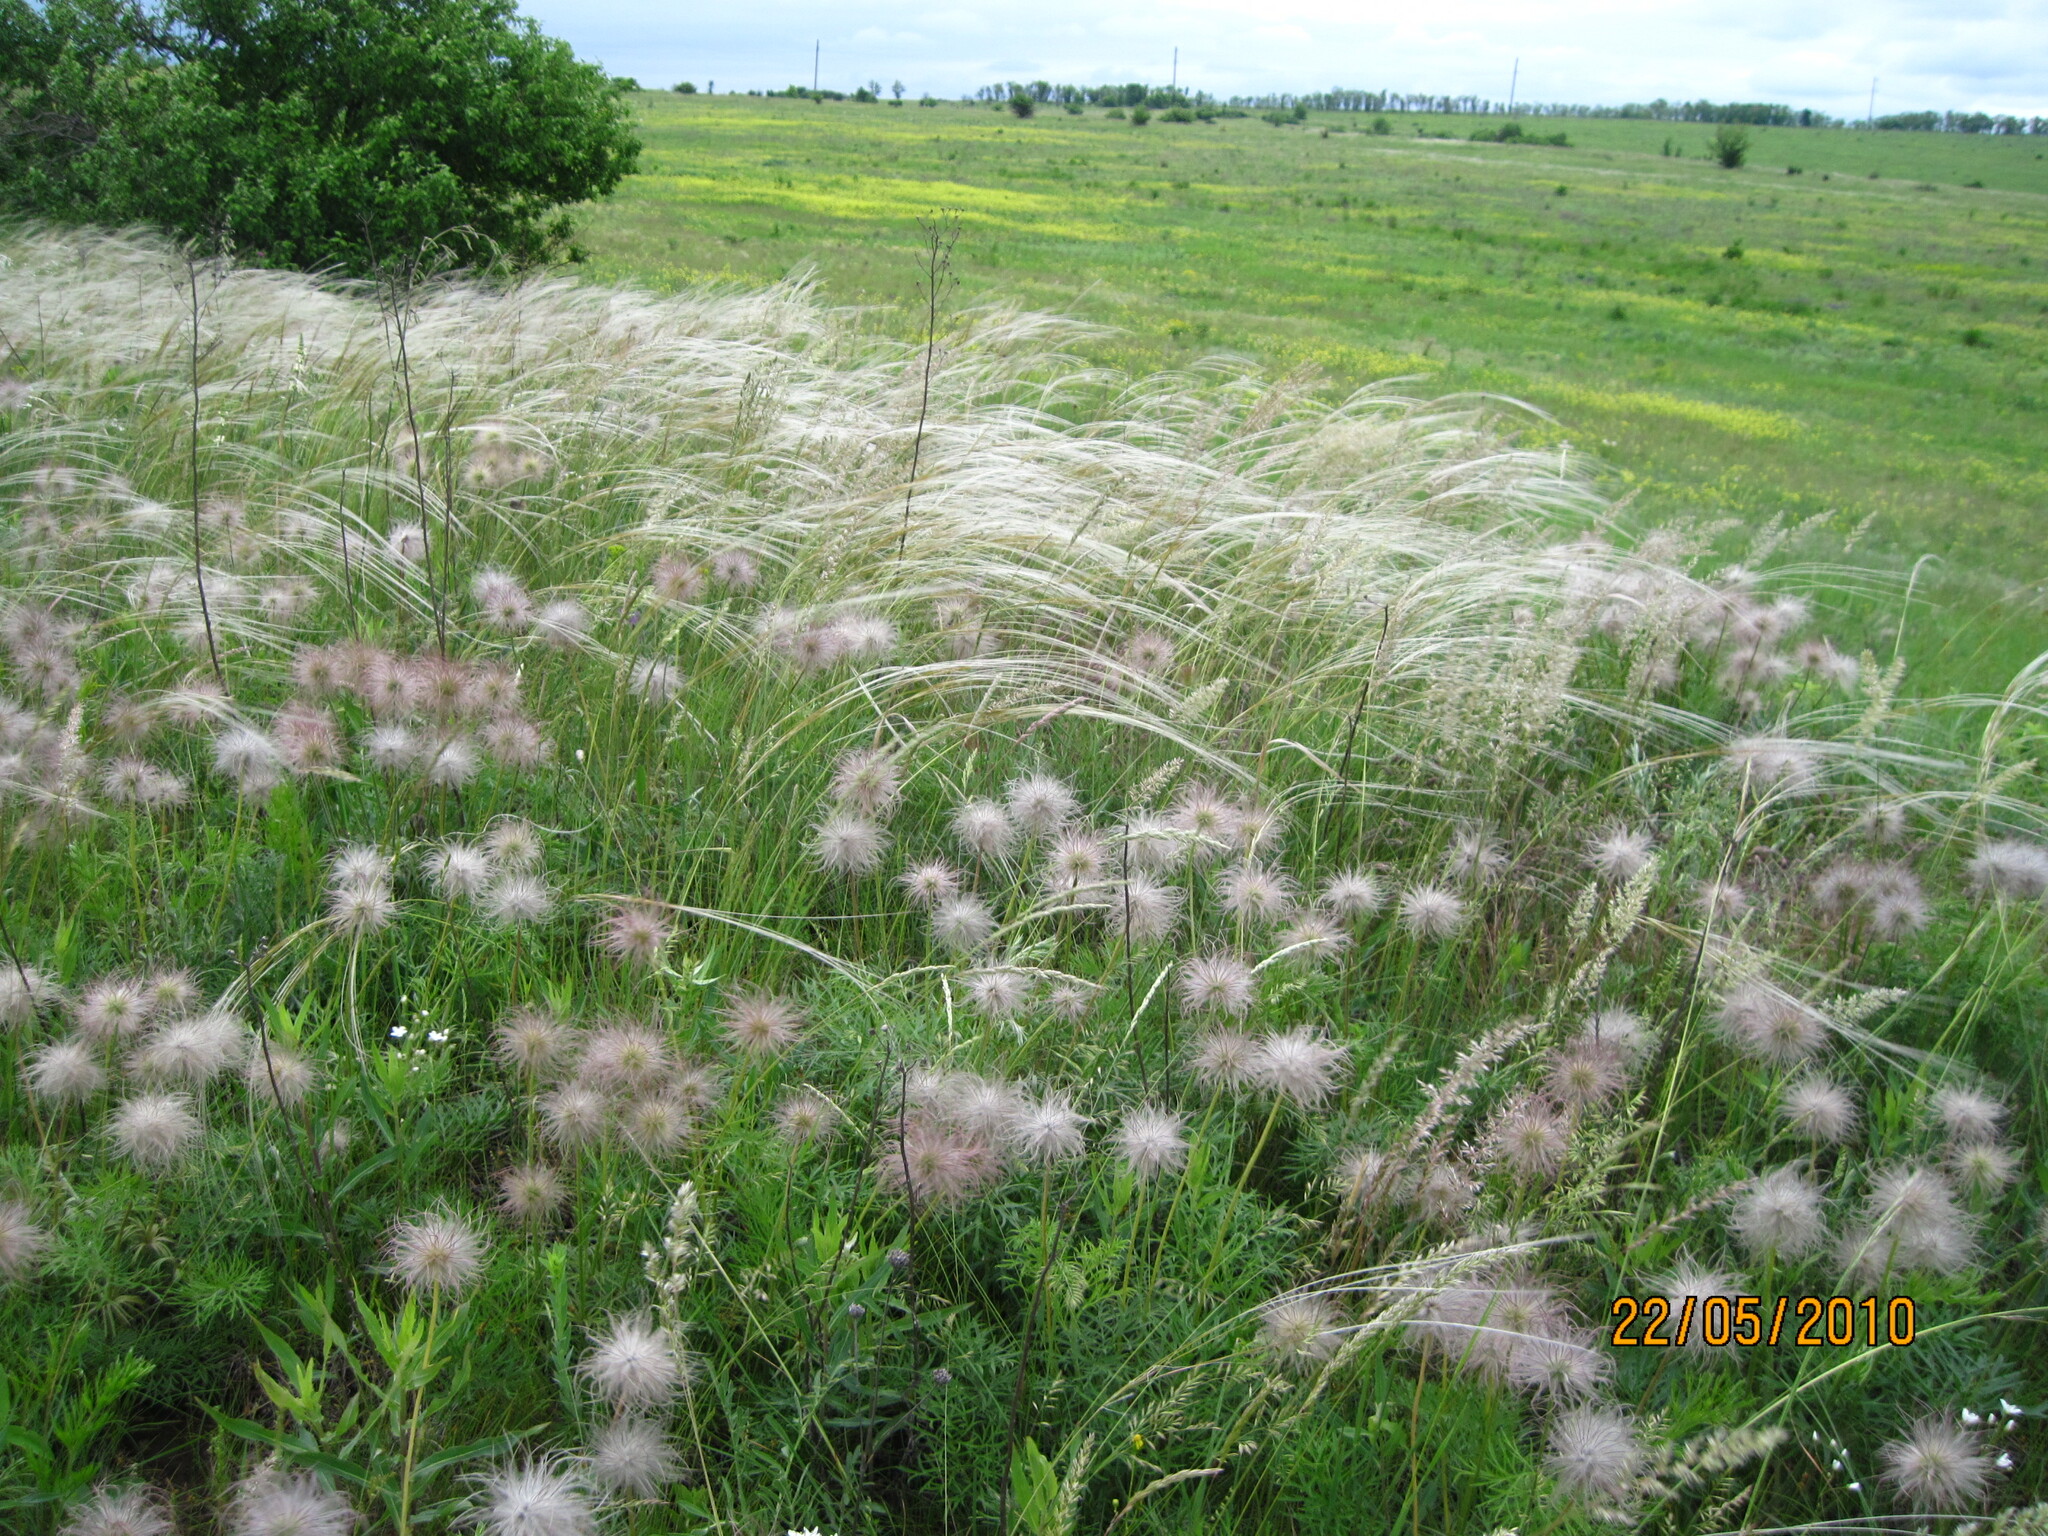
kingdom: Plantae
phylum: Tracheophyta
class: Magnoliopsida
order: Ranunculales
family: Ranunculaceae
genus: Pulsatilla
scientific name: Pulsatilla pratensis
